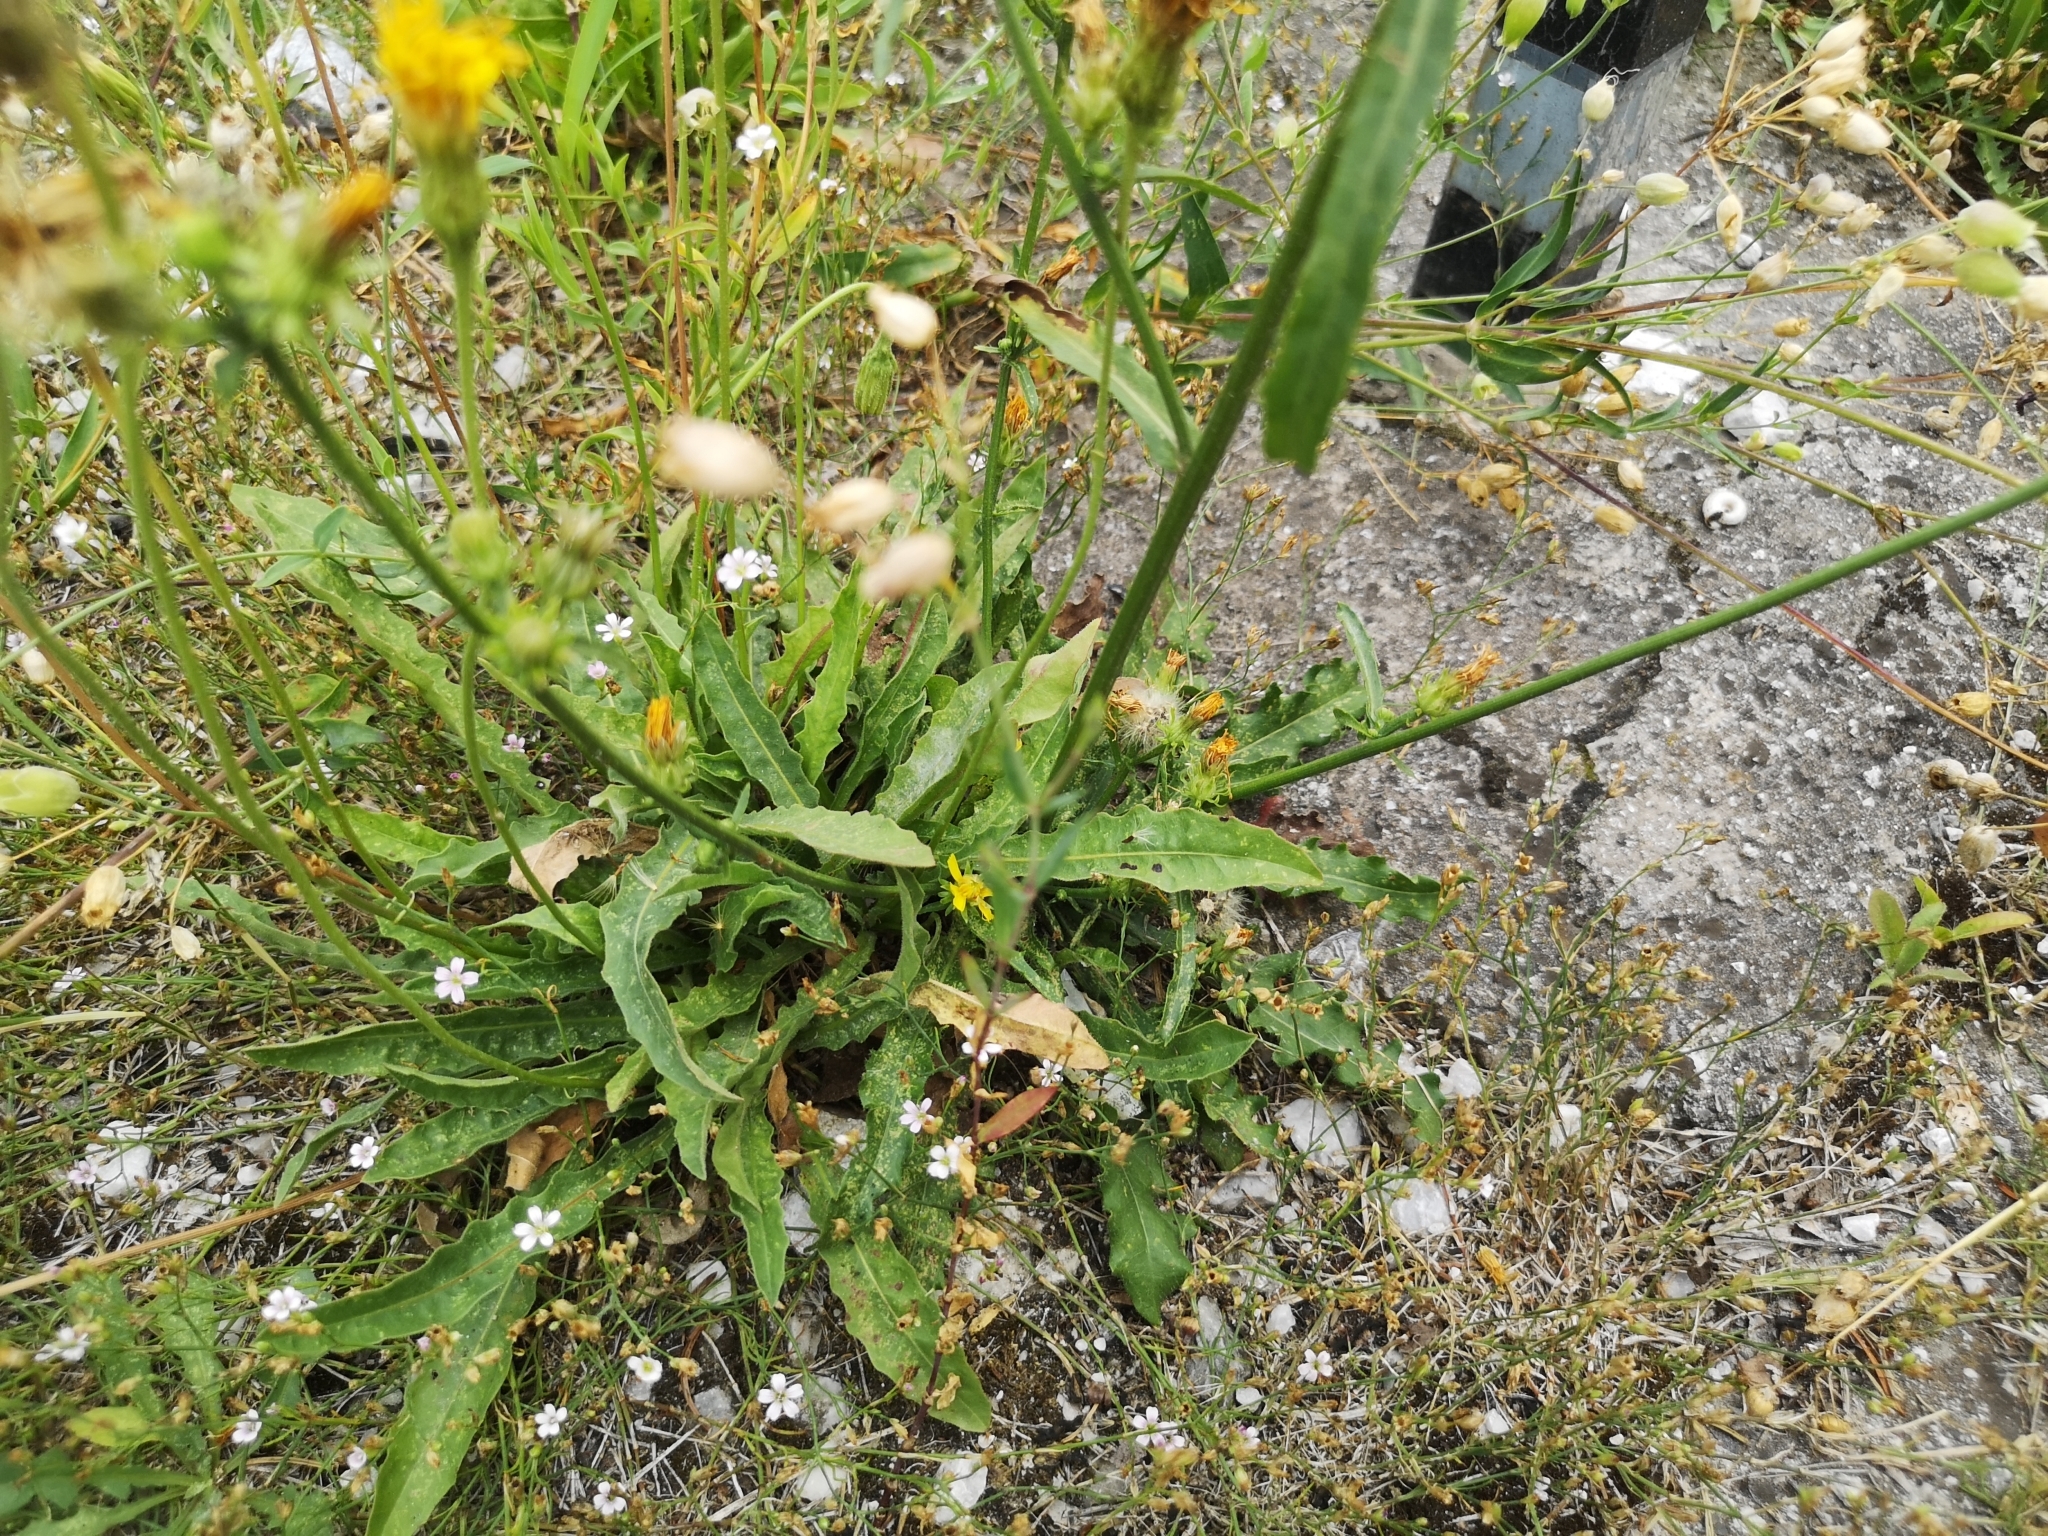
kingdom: Plantae
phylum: Tracheophyta
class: Magnoliopsida
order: Asterales
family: Asteraceae
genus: Picris
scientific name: Picris hieracioides
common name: Hawkweed oxtongue
